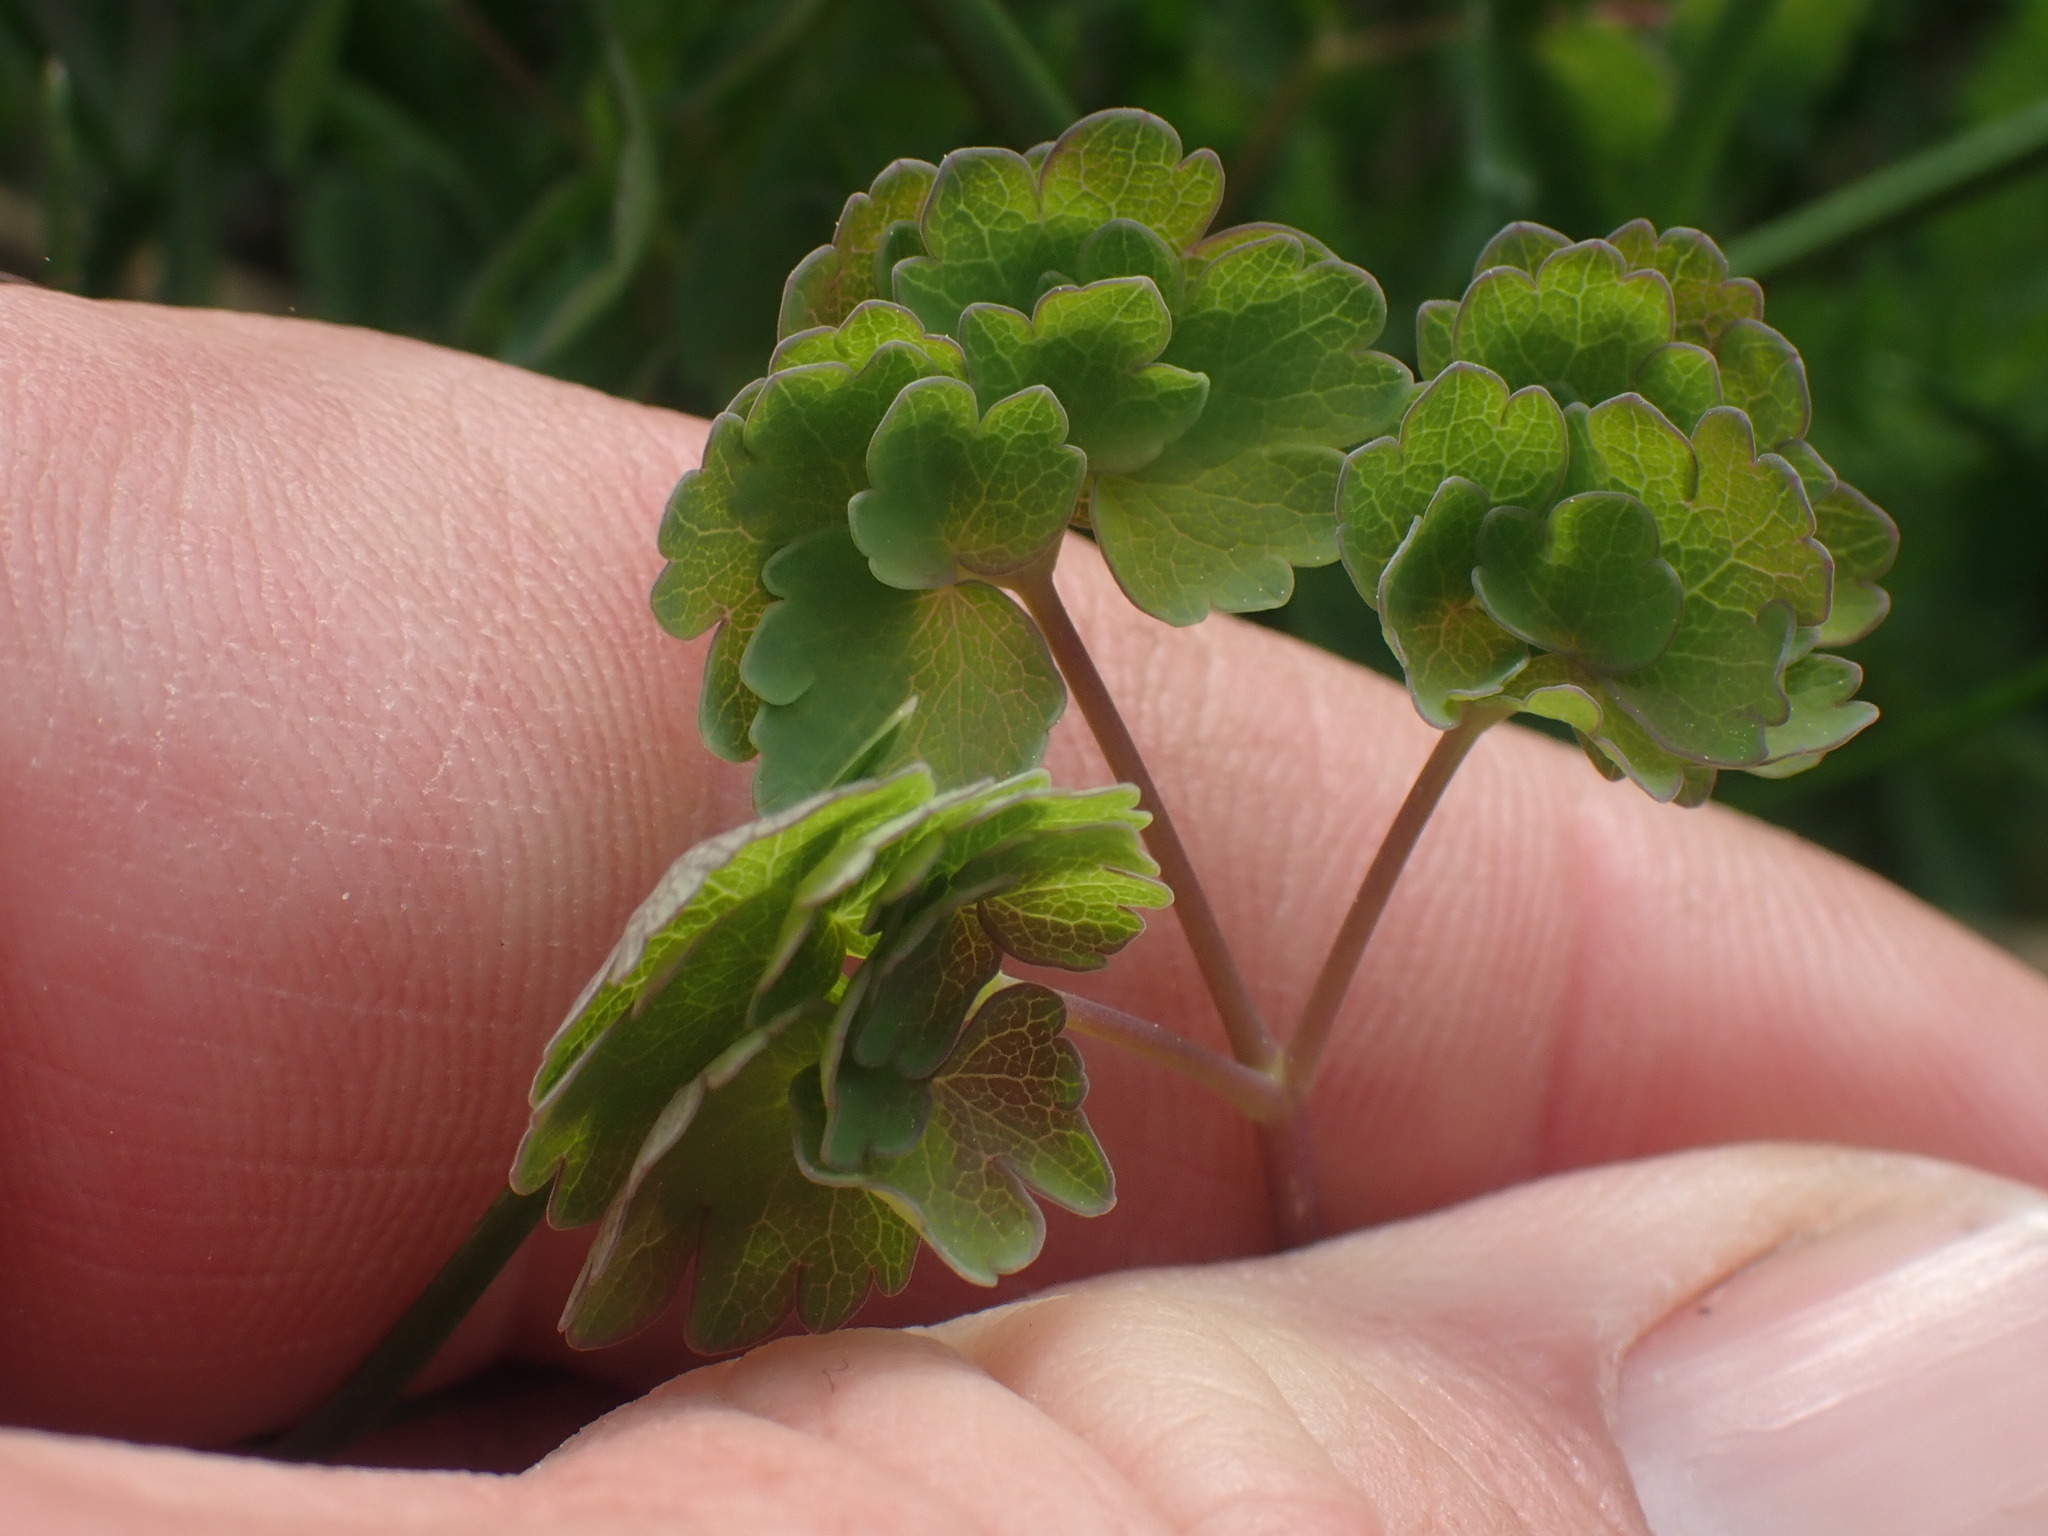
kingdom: Plantae
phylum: Tracheophyta
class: Magnoliopsida
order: Ranunculales
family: Ranunculaceae
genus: Thalictrum
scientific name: Thalictrum occidentale
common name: Western meadow-rue
